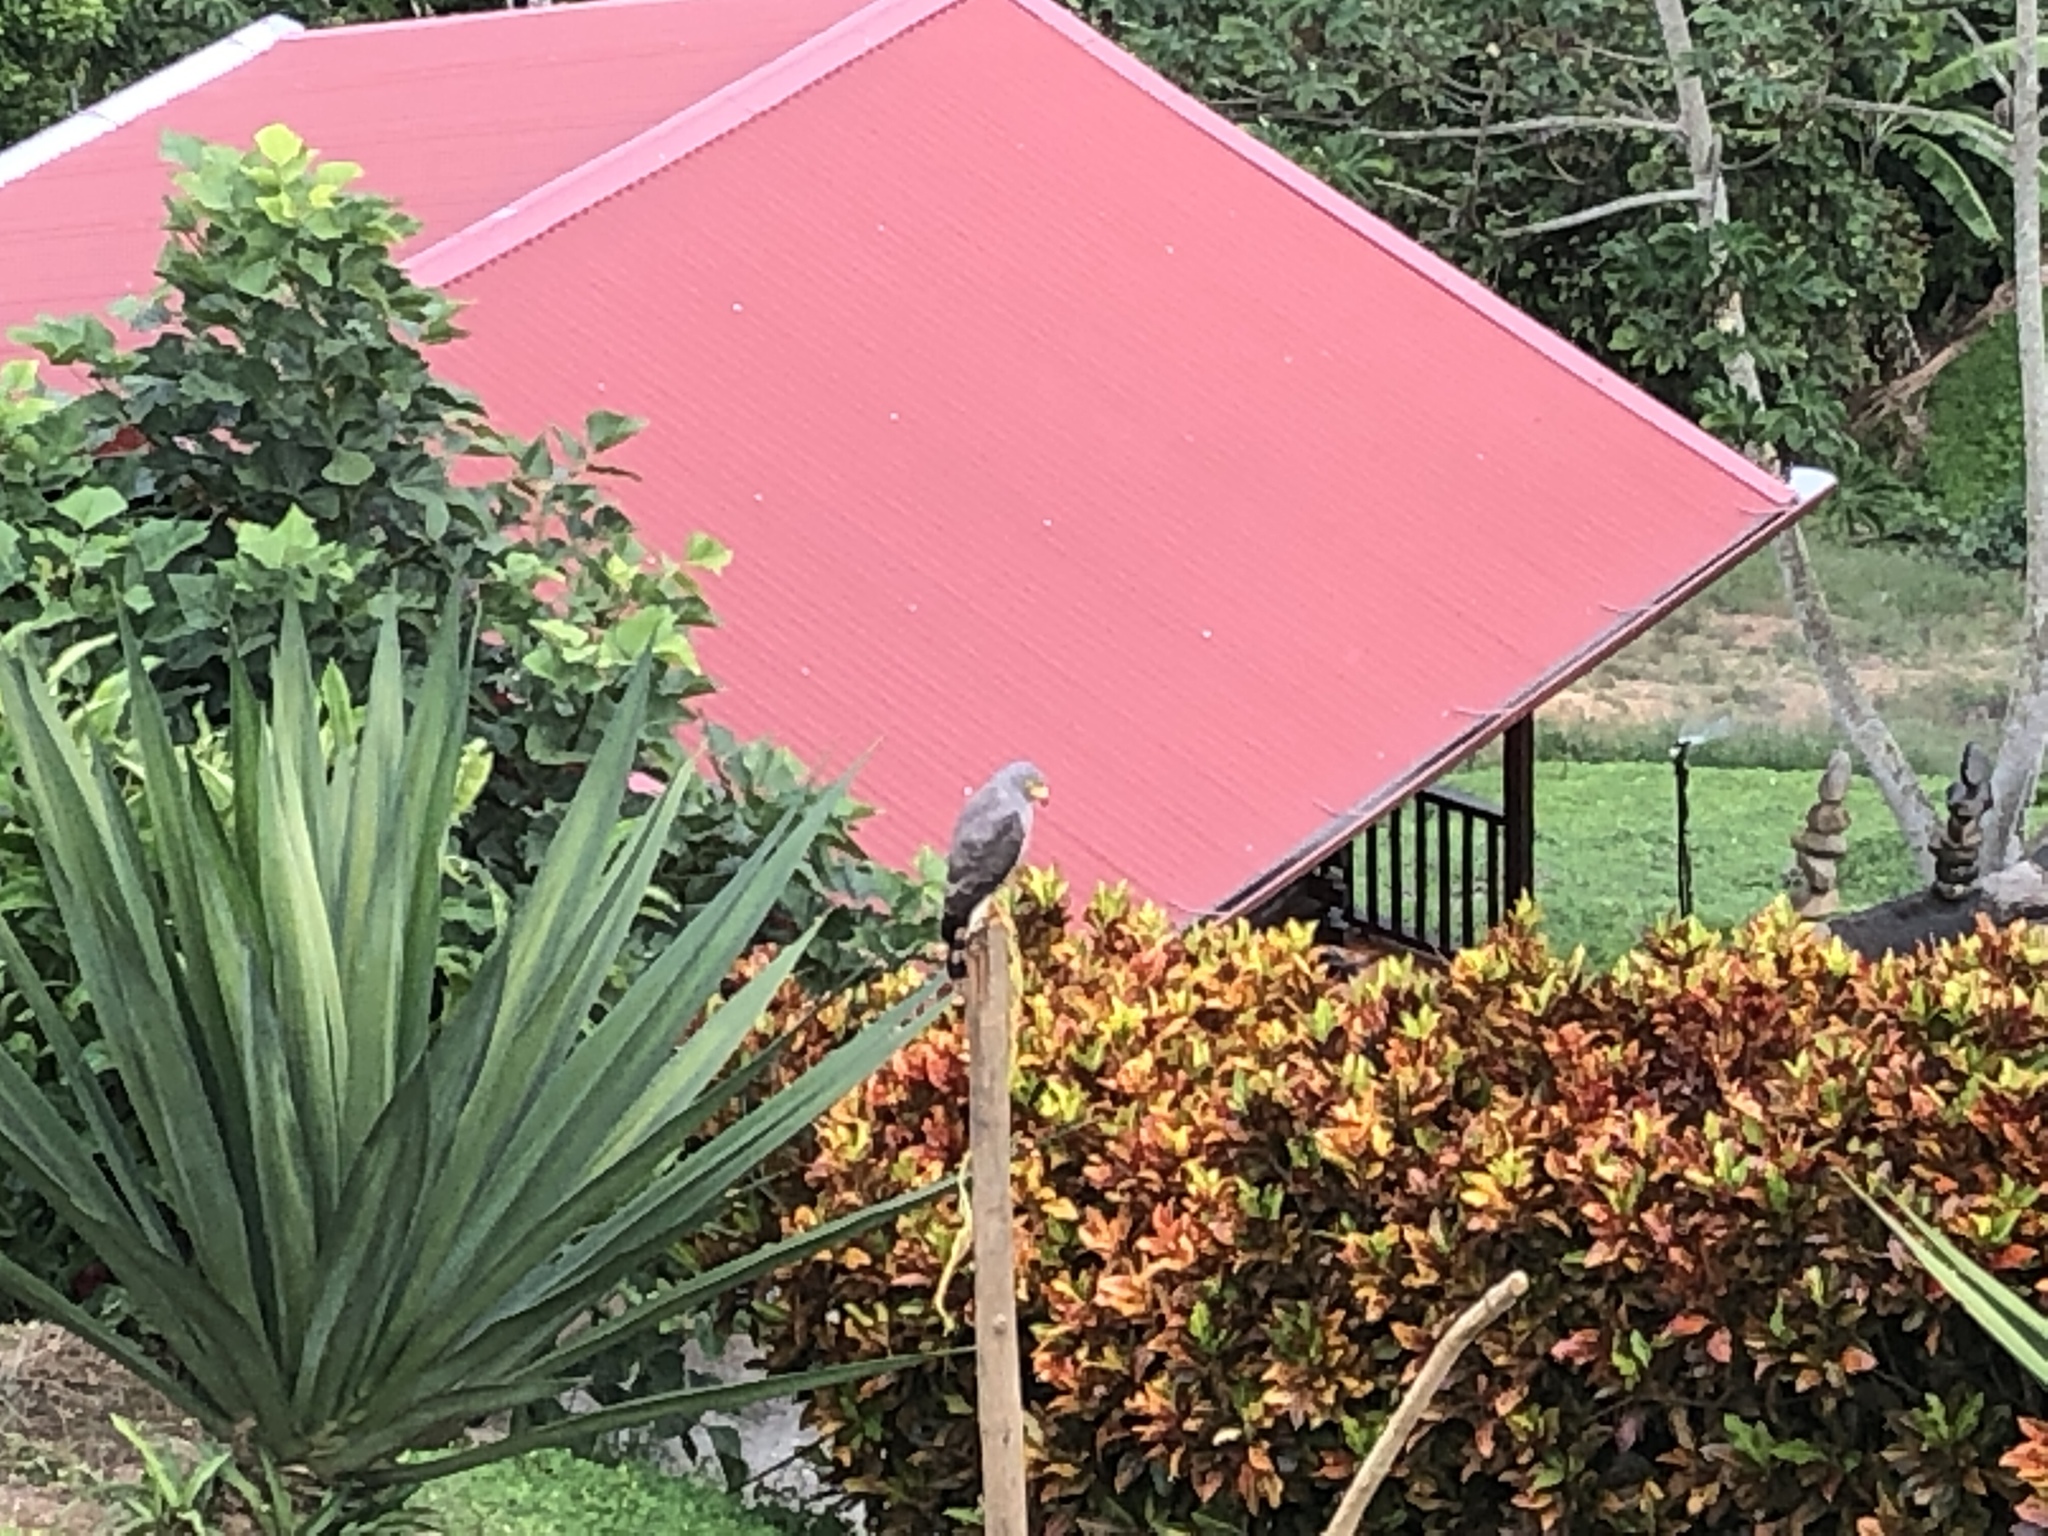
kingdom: Animalia
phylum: Chordata
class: Aves
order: Accipitriformes
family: Accipitridae
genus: Rupornis
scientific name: Rupornis magnirostris
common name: Roadside hawk
